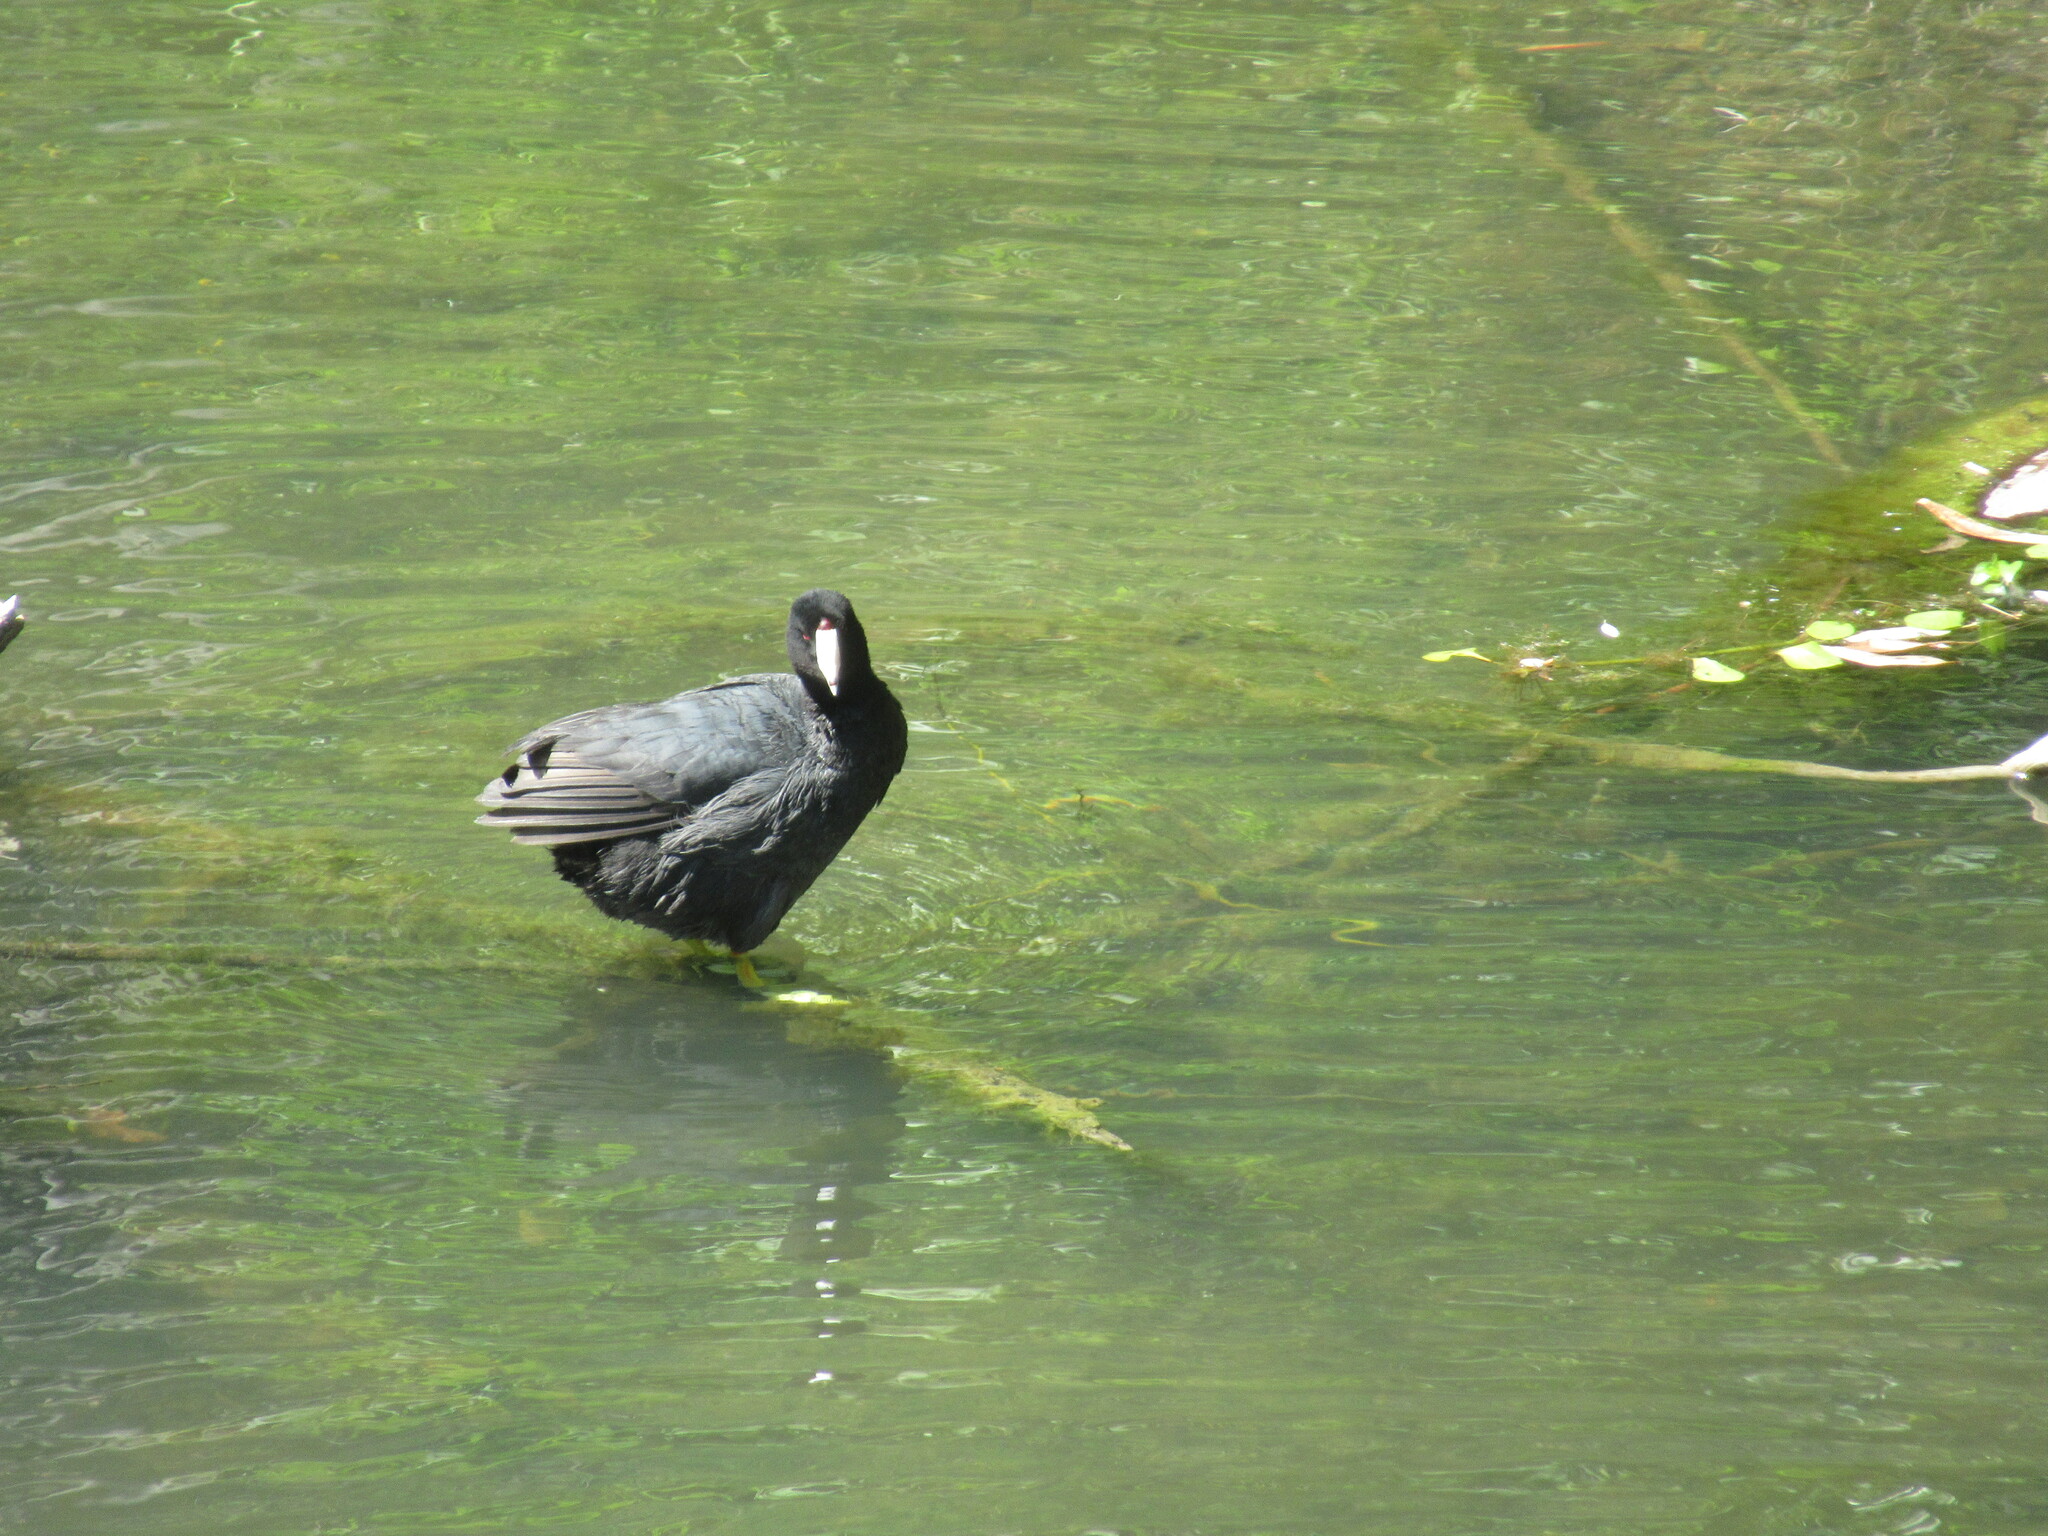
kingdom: Animalia
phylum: Chordata
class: Aves
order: Gruiformes
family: Rallidae
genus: Fulica
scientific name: Fulica americana
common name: American coot
